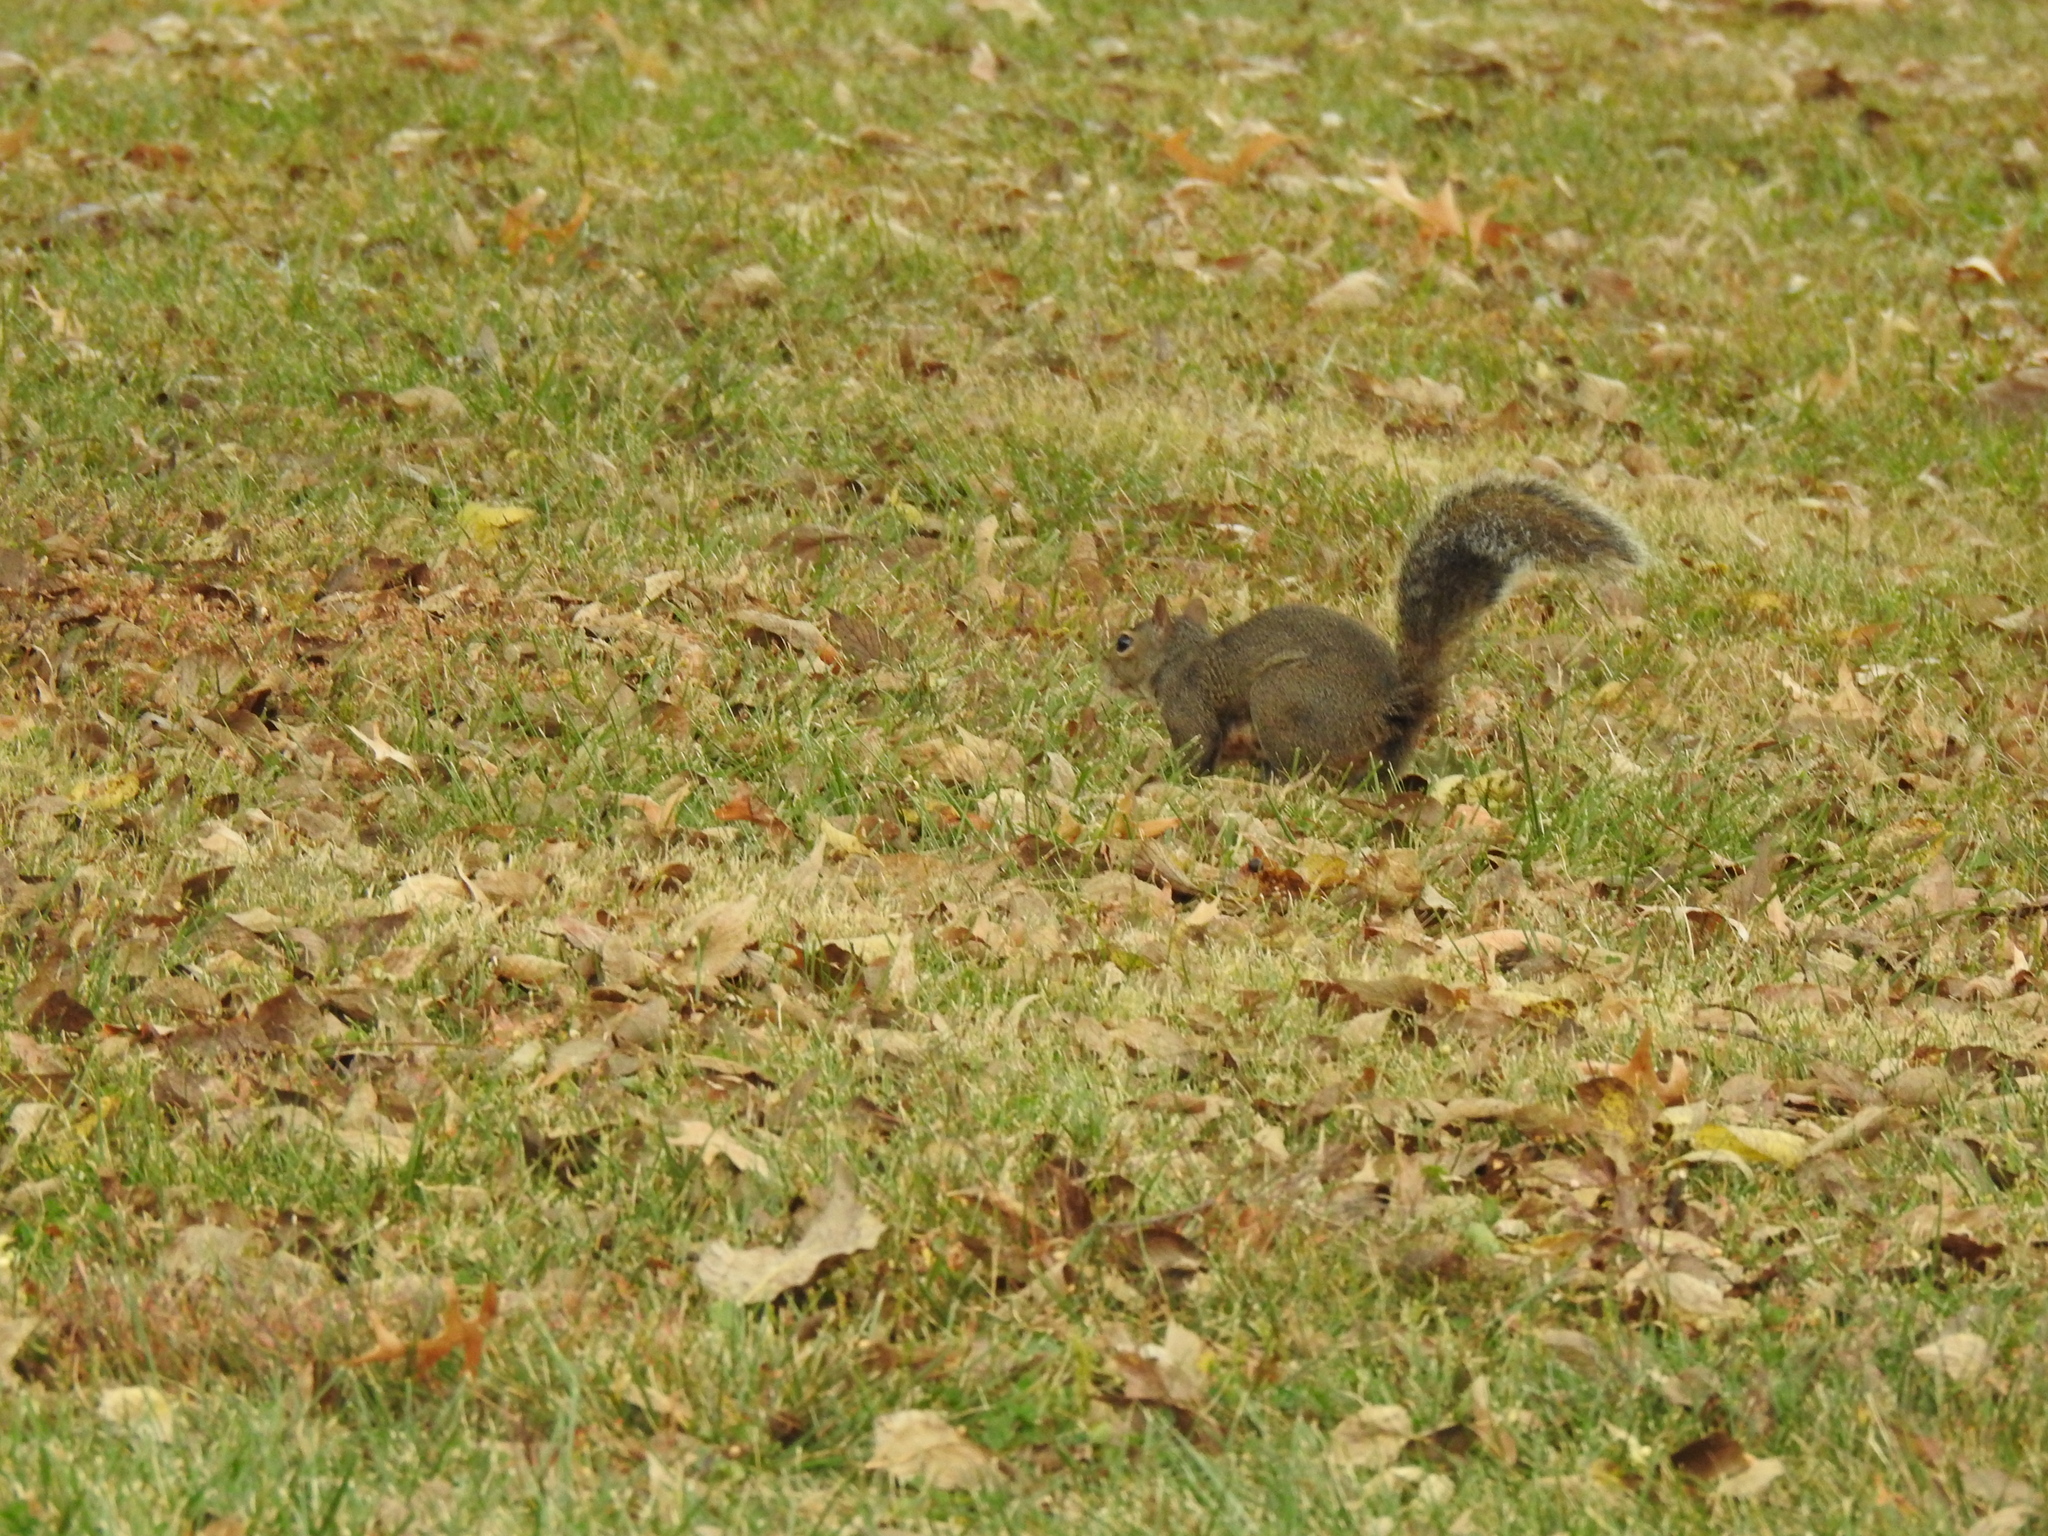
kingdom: Animalia
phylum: Chordata
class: Mammalia
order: Rodentia
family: Sciuridae
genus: Sciurus
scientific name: Sciurus carolinensis
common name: Eastern gray squirrel
